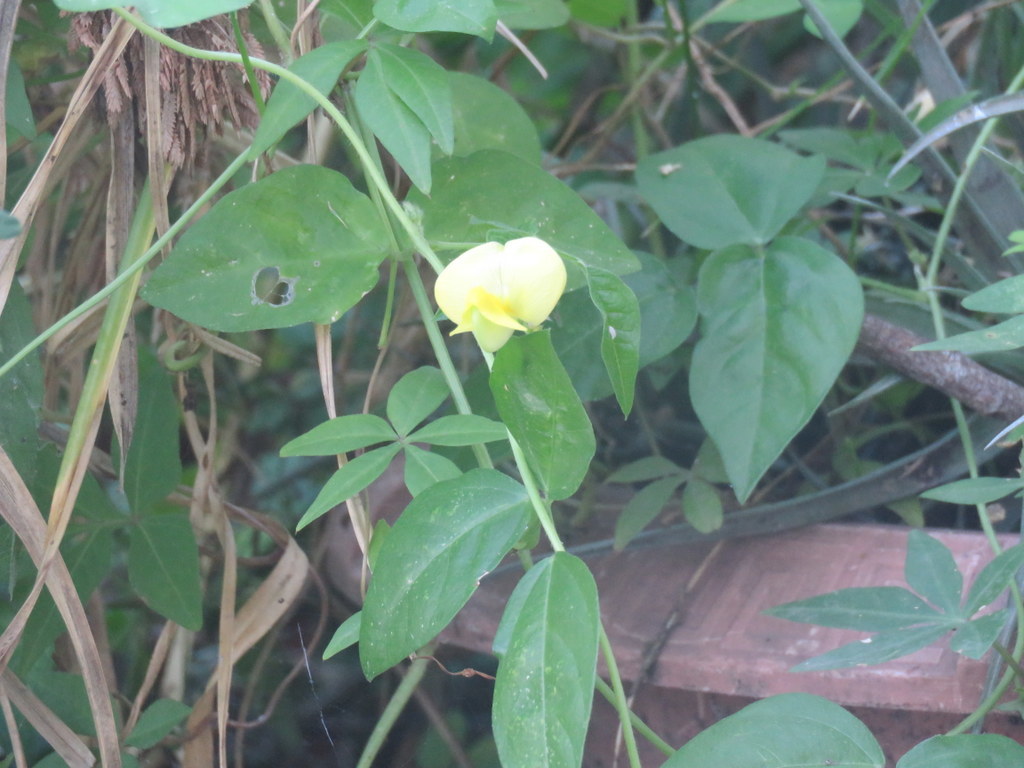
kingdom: Plantae
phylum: Tracheophyta
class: Magnoliopsida
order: Fabales
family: Fabaceae
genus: Vigna
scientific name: Vigna luteola
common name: Hairypod cowpea
